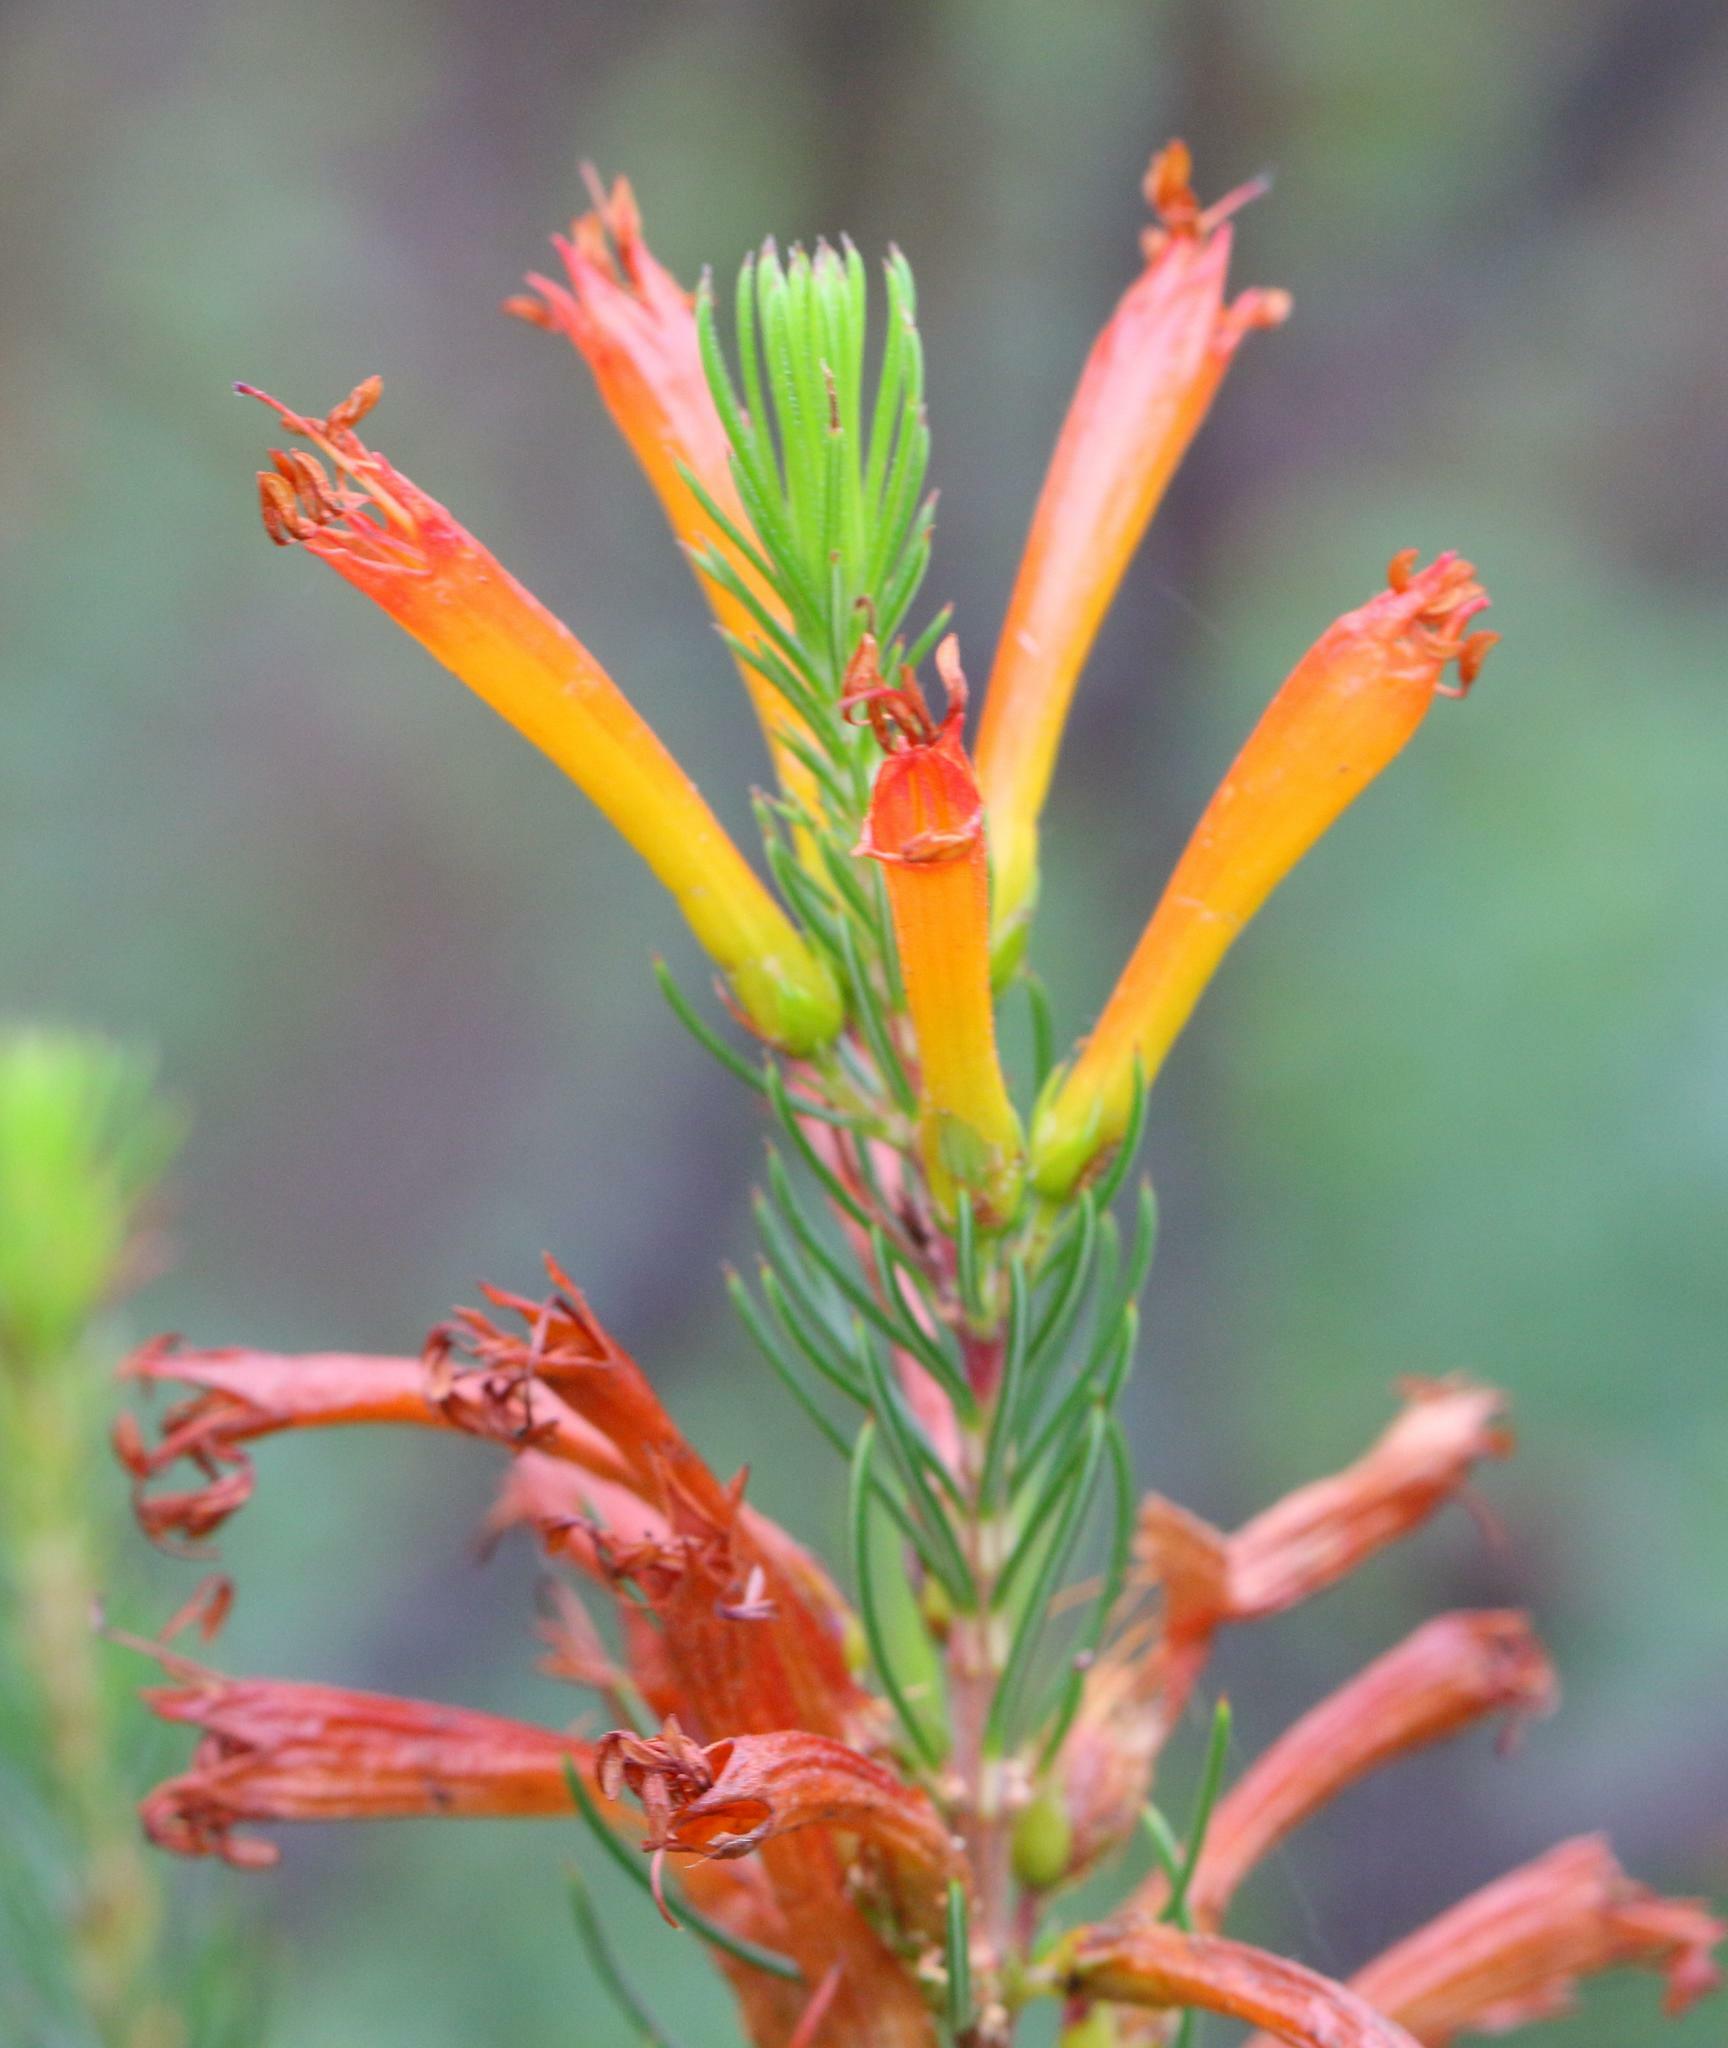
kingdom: Plantae
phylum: Tracheophyta
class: Magnoliopsida
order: Ericales
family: Ericaceae
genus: Erica
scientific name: Erica grandiflora
